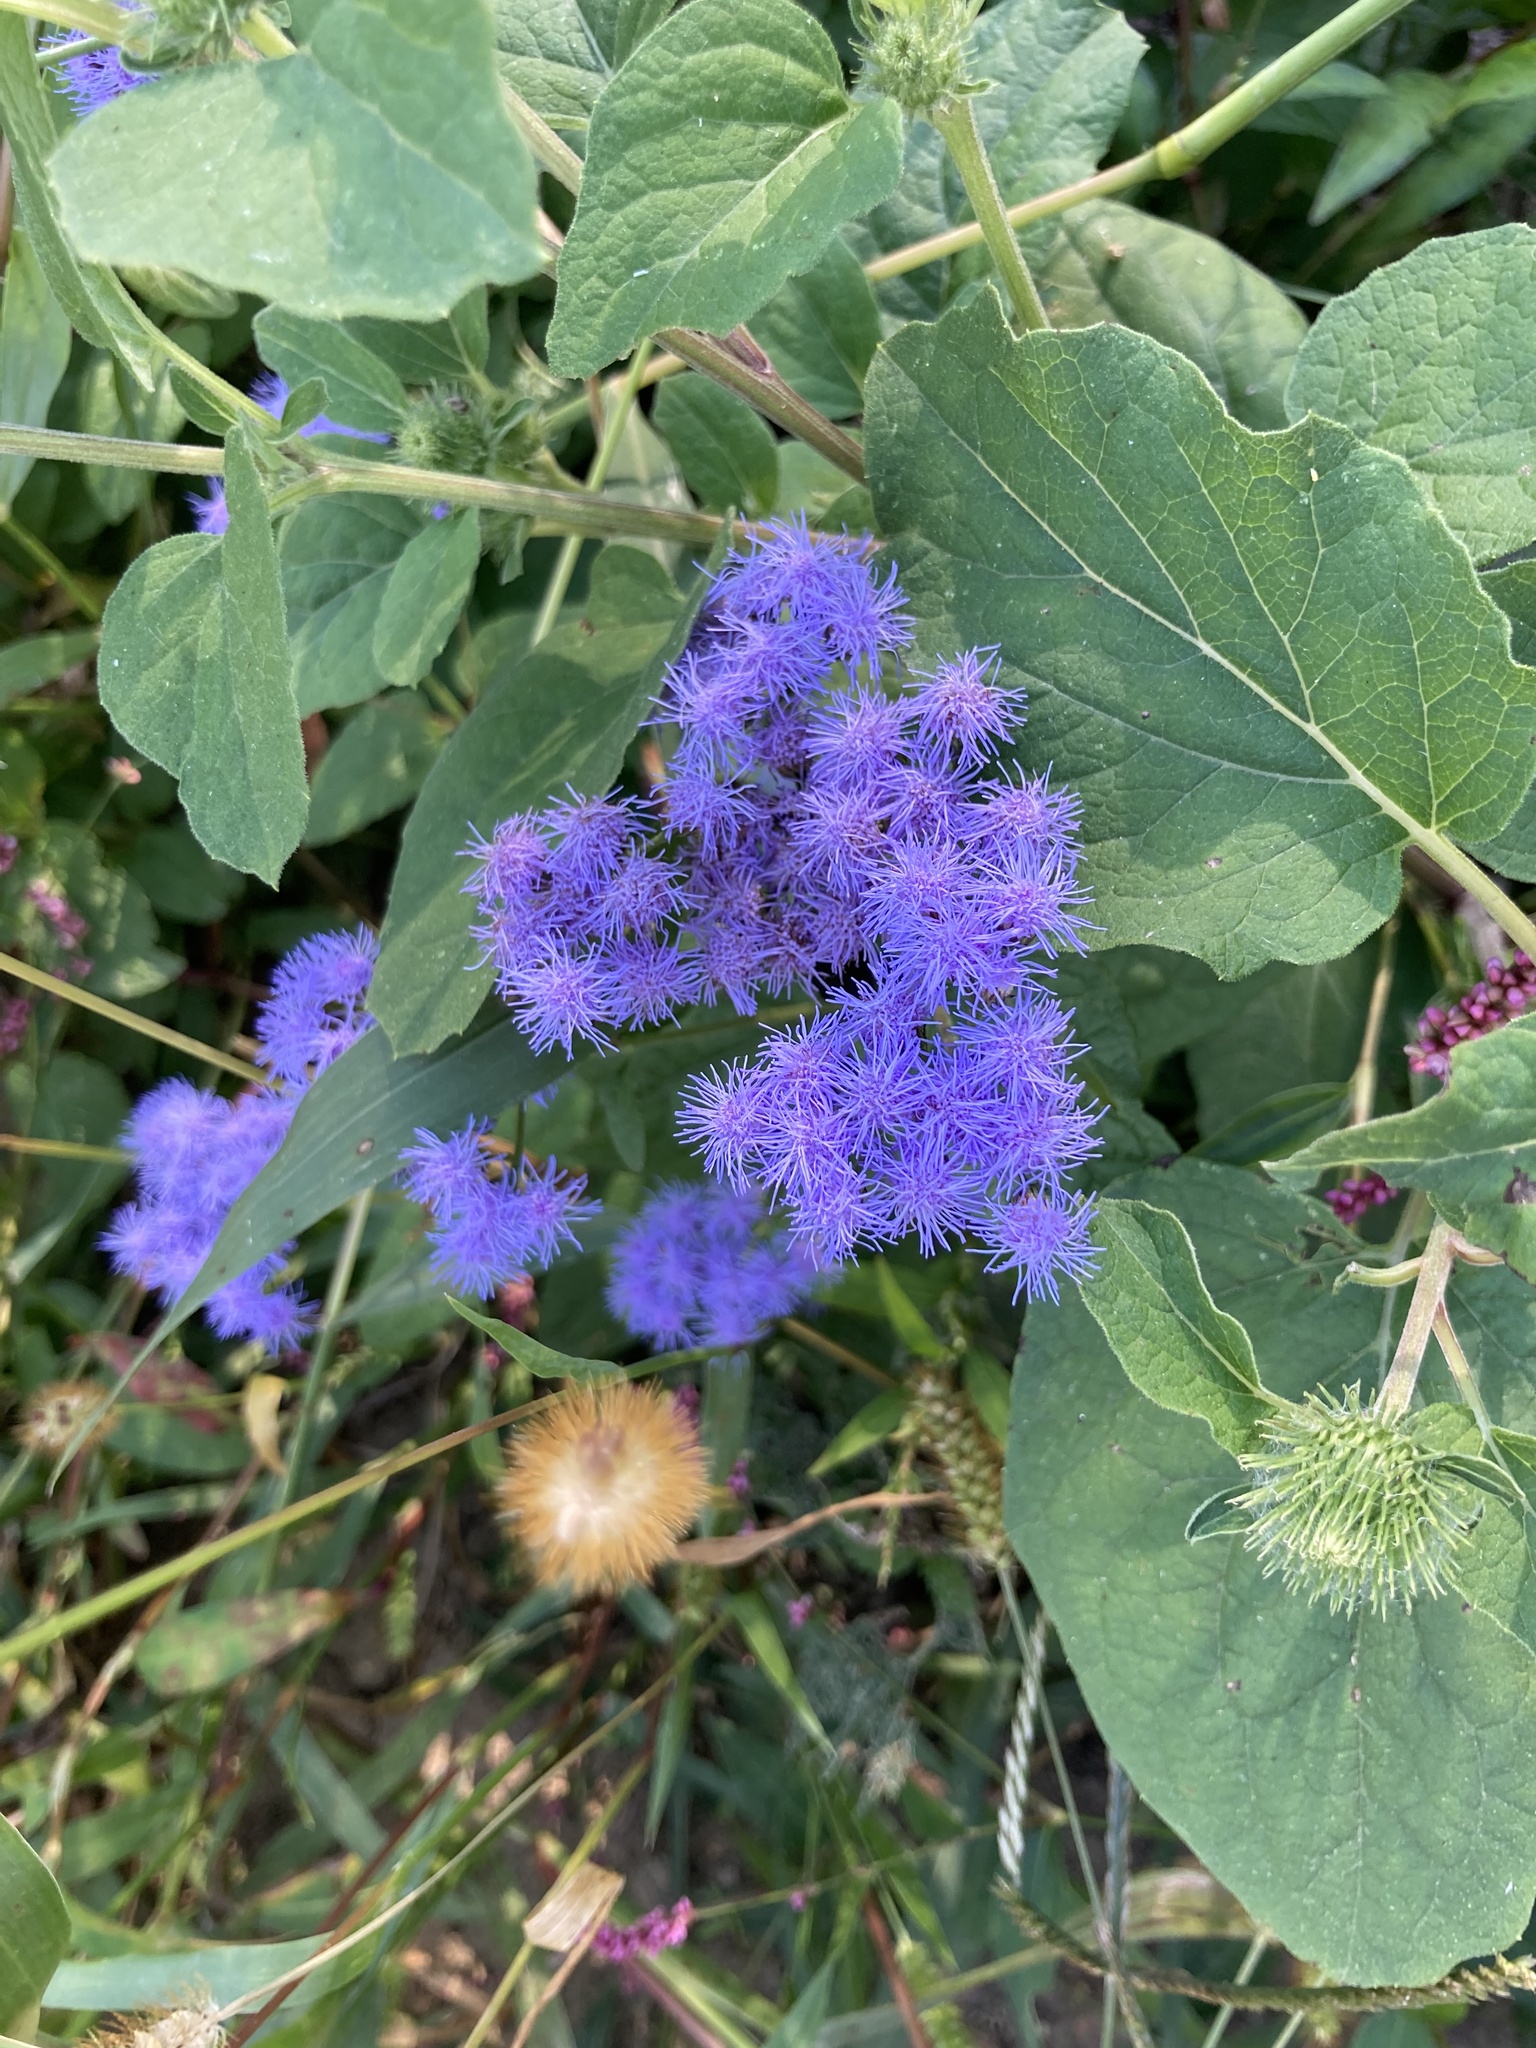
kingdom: Plantae
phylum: Tracheophyta
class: Magnoliopsida
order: Asterales
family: Asteraceae
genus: Conoclinium
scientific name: Conoclinium coelestinum
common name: Blue mistflower
